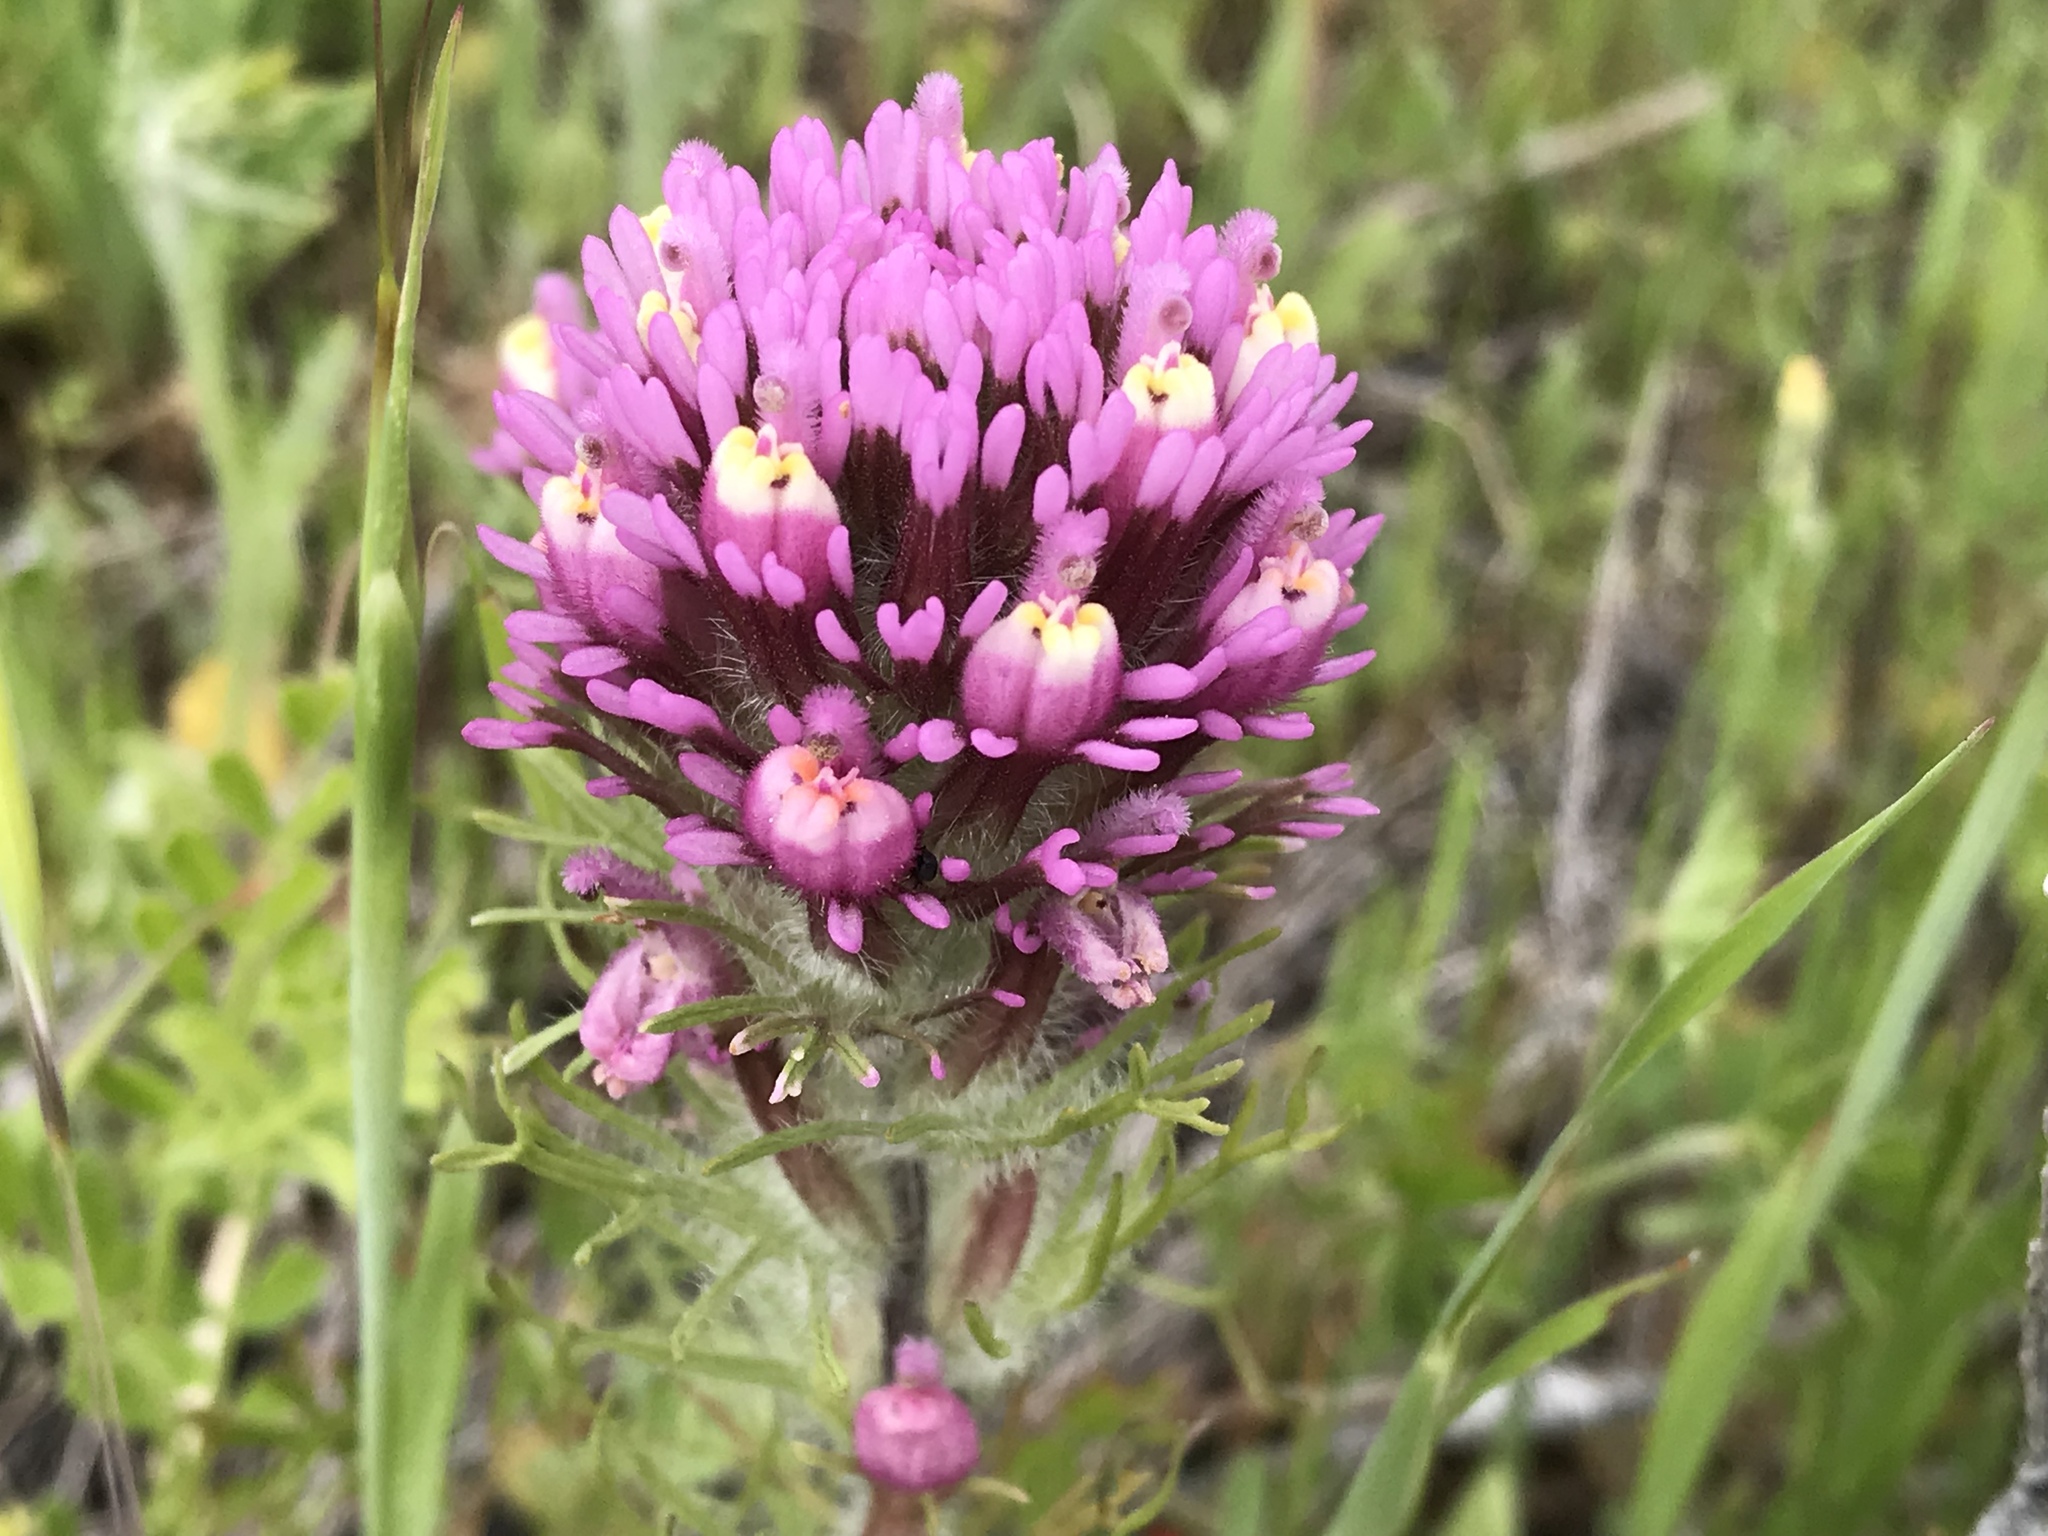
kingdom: Plantae
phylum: Tracheophyta
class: Magnoliopsida
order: Lamiales
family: Orobanchaceae
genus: Castilleja
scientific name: Castilleja exserta
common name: Purple owl-clover
